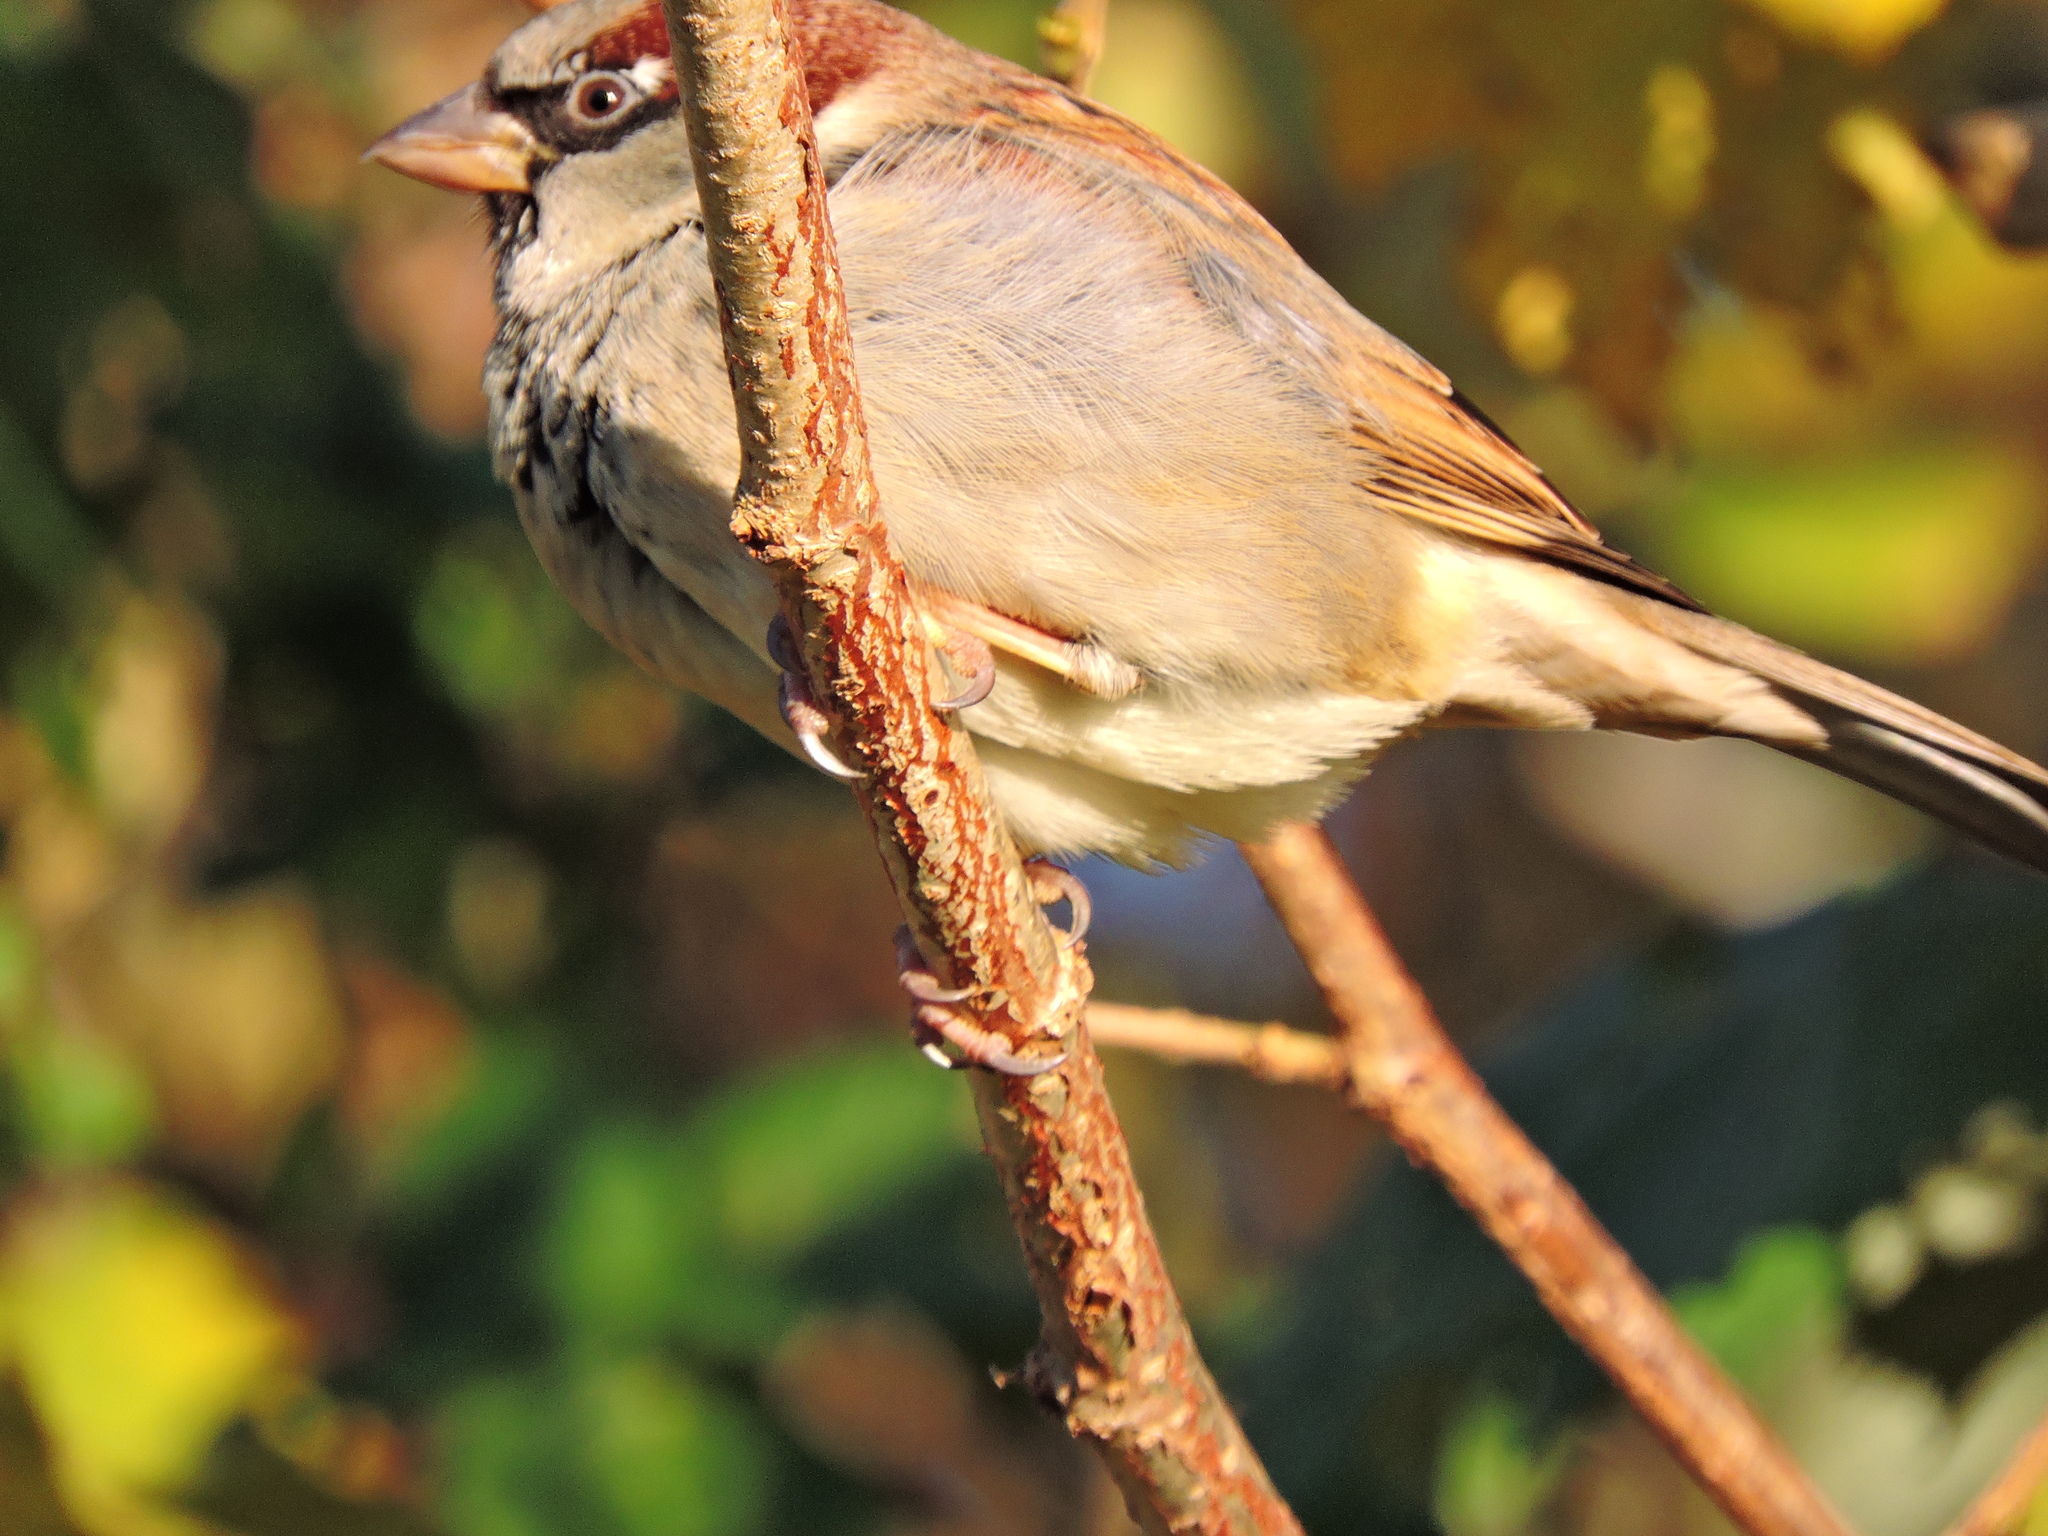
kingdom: Animalia
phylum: Chordata
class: Aves
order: Passeriformes
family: Passeridae
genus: Passer
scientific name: Passer domesticus
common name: House sparrow
